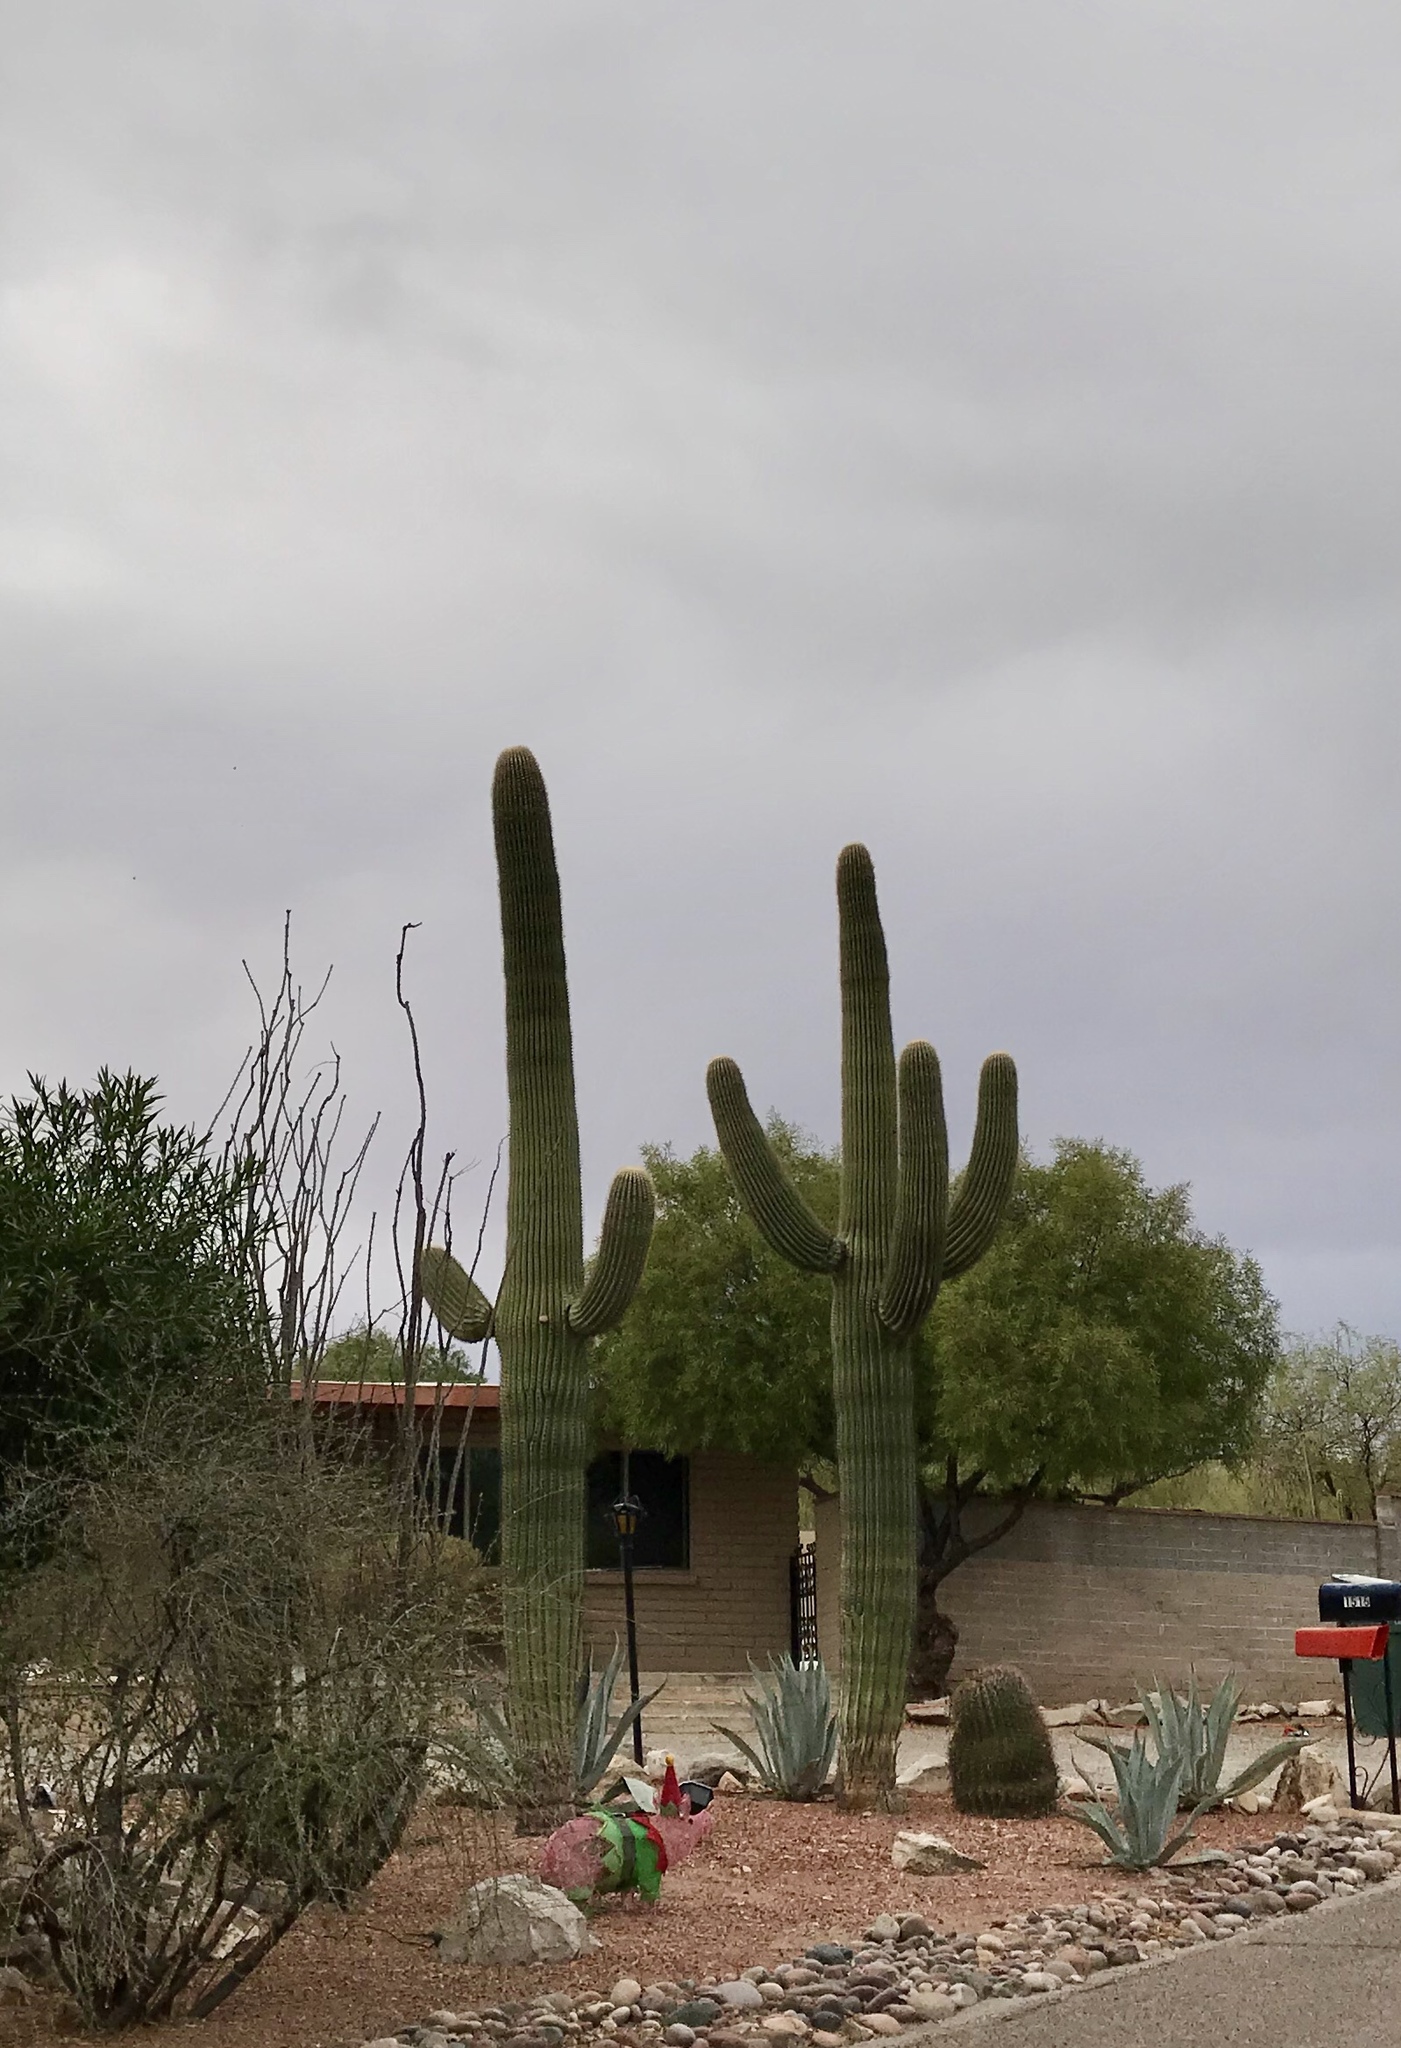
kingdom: Plantae
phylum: Tracheophyta
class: Magnoliopsida
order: Caryophyllales
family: Cactaceae
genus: Carnegiea
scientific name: Carnegiea gigantea
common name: Saguaro
